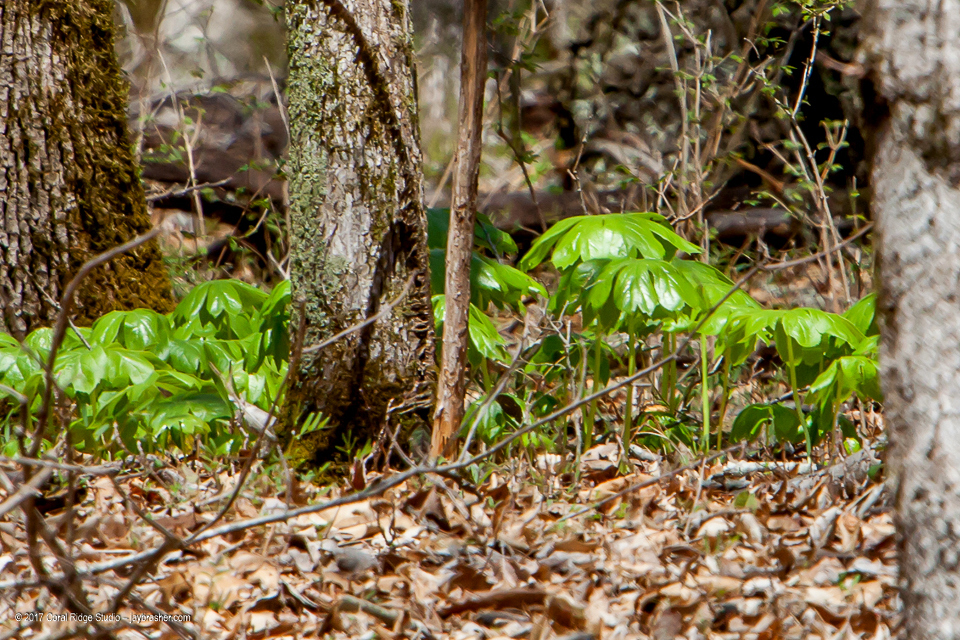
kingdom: Plantae
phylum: Tracheophyta
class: Magnoliopsida
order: Ranunculales
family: Berberidaceae
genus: Podophyllum
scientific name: Podophyllum peltatum
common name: Wild mandrake
